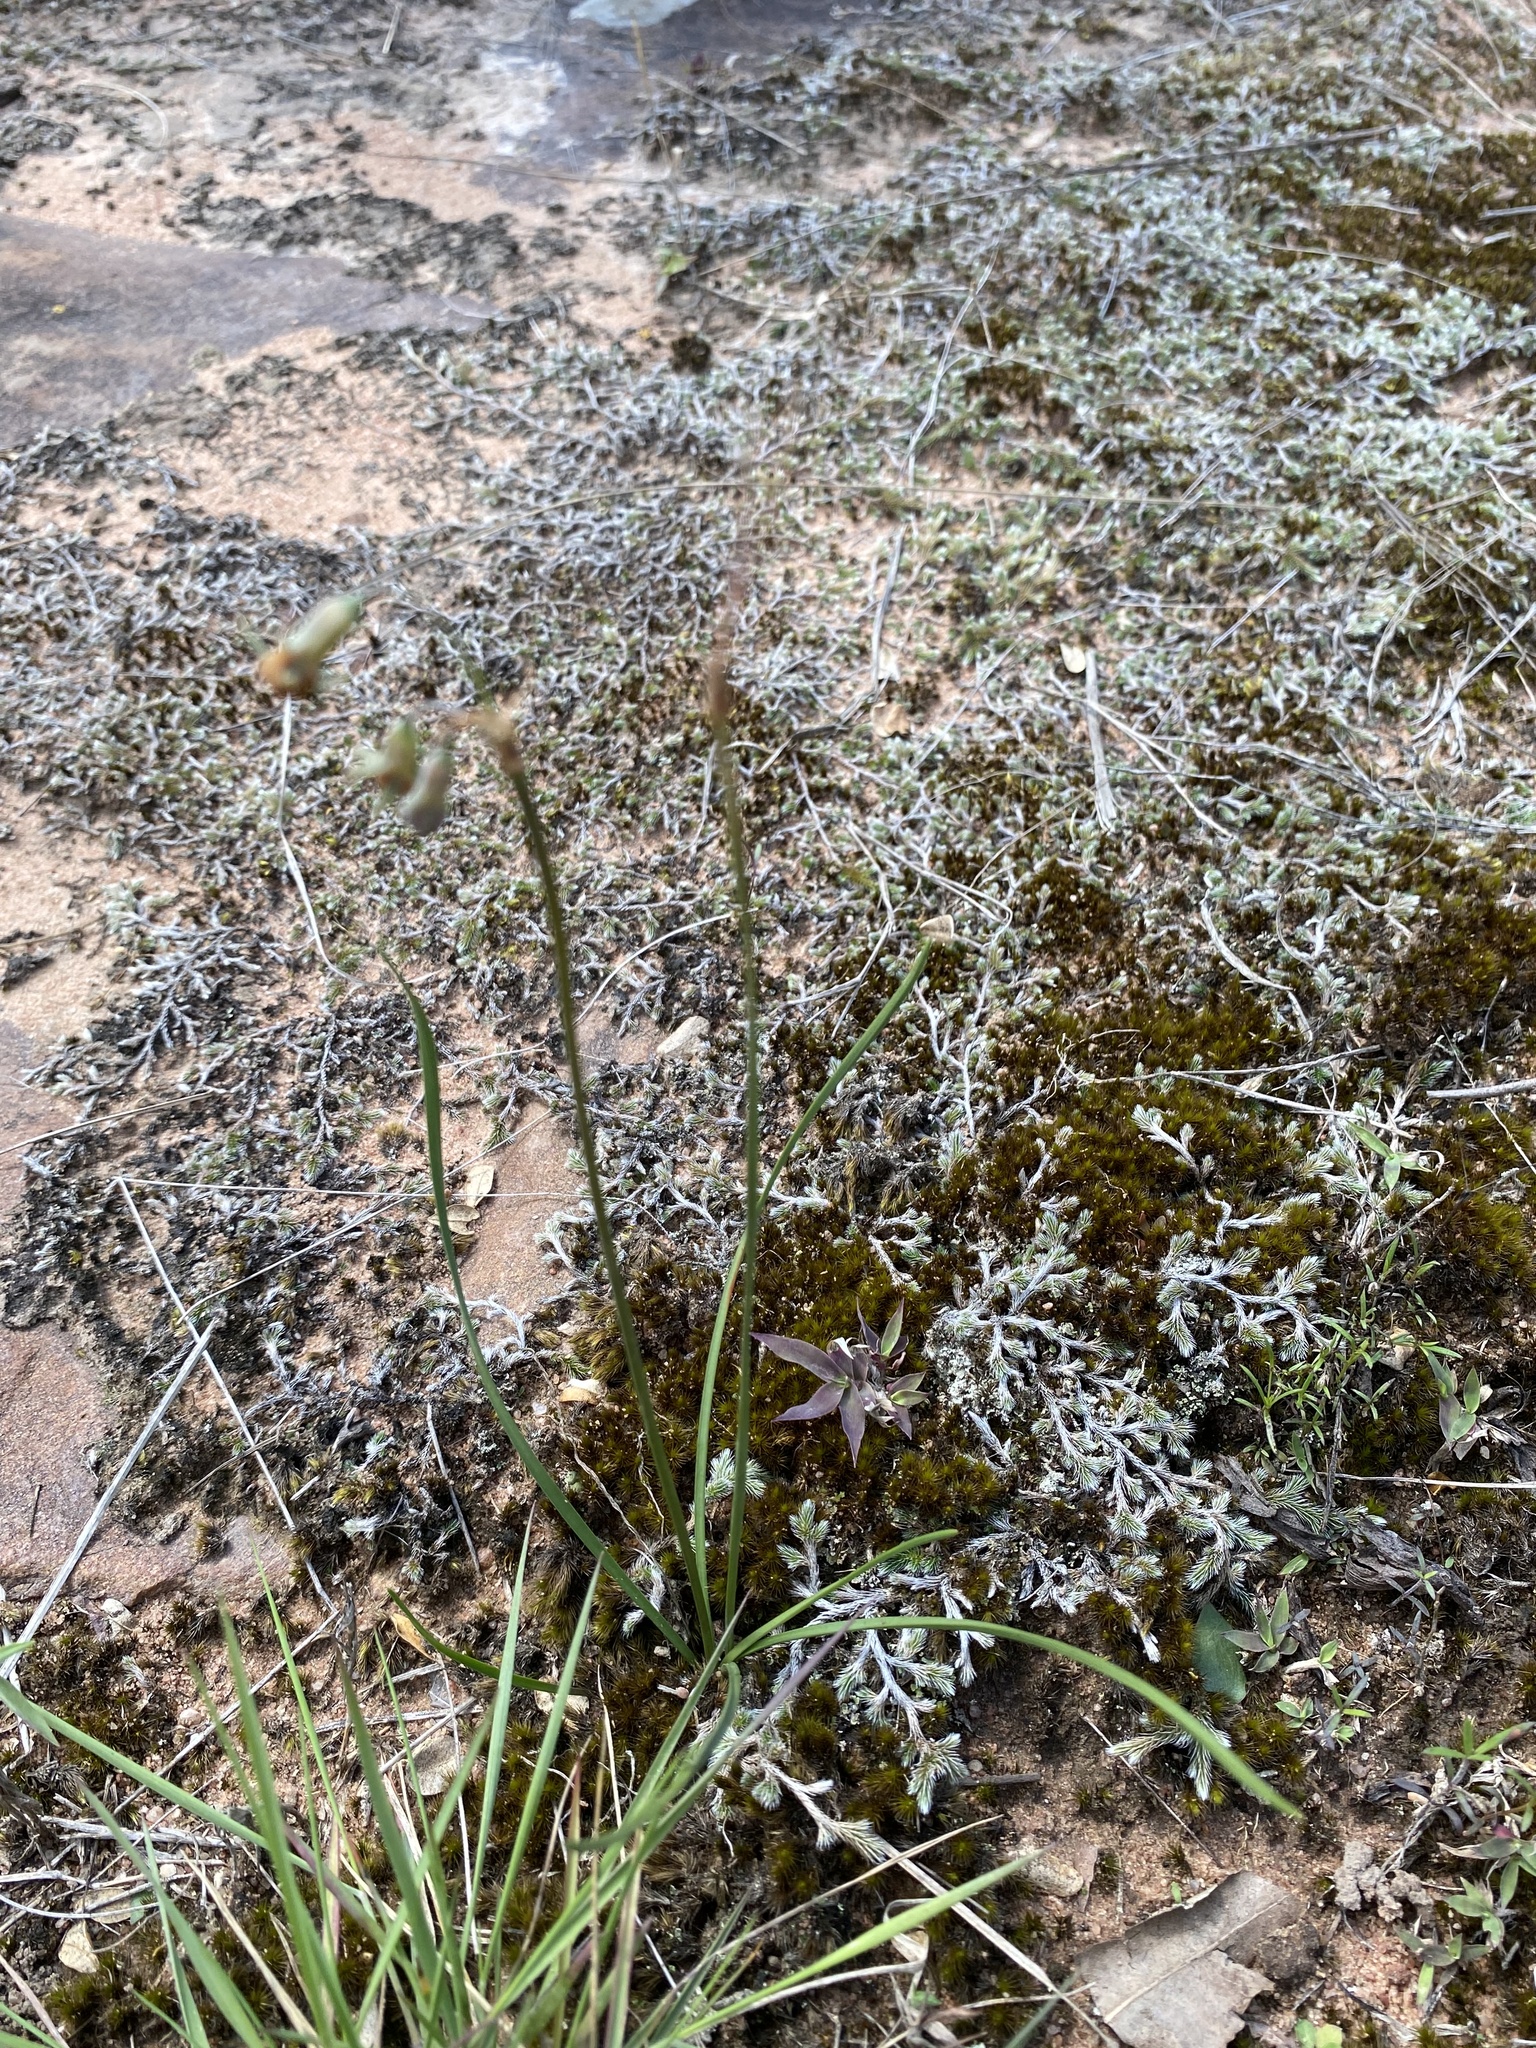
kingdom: Plantae
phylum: Tracheophyta
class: Liliopsida
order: Asparagales
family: Amaryllidaceae
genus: Tulbaghia
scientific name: Tulbaghia acutiloba
